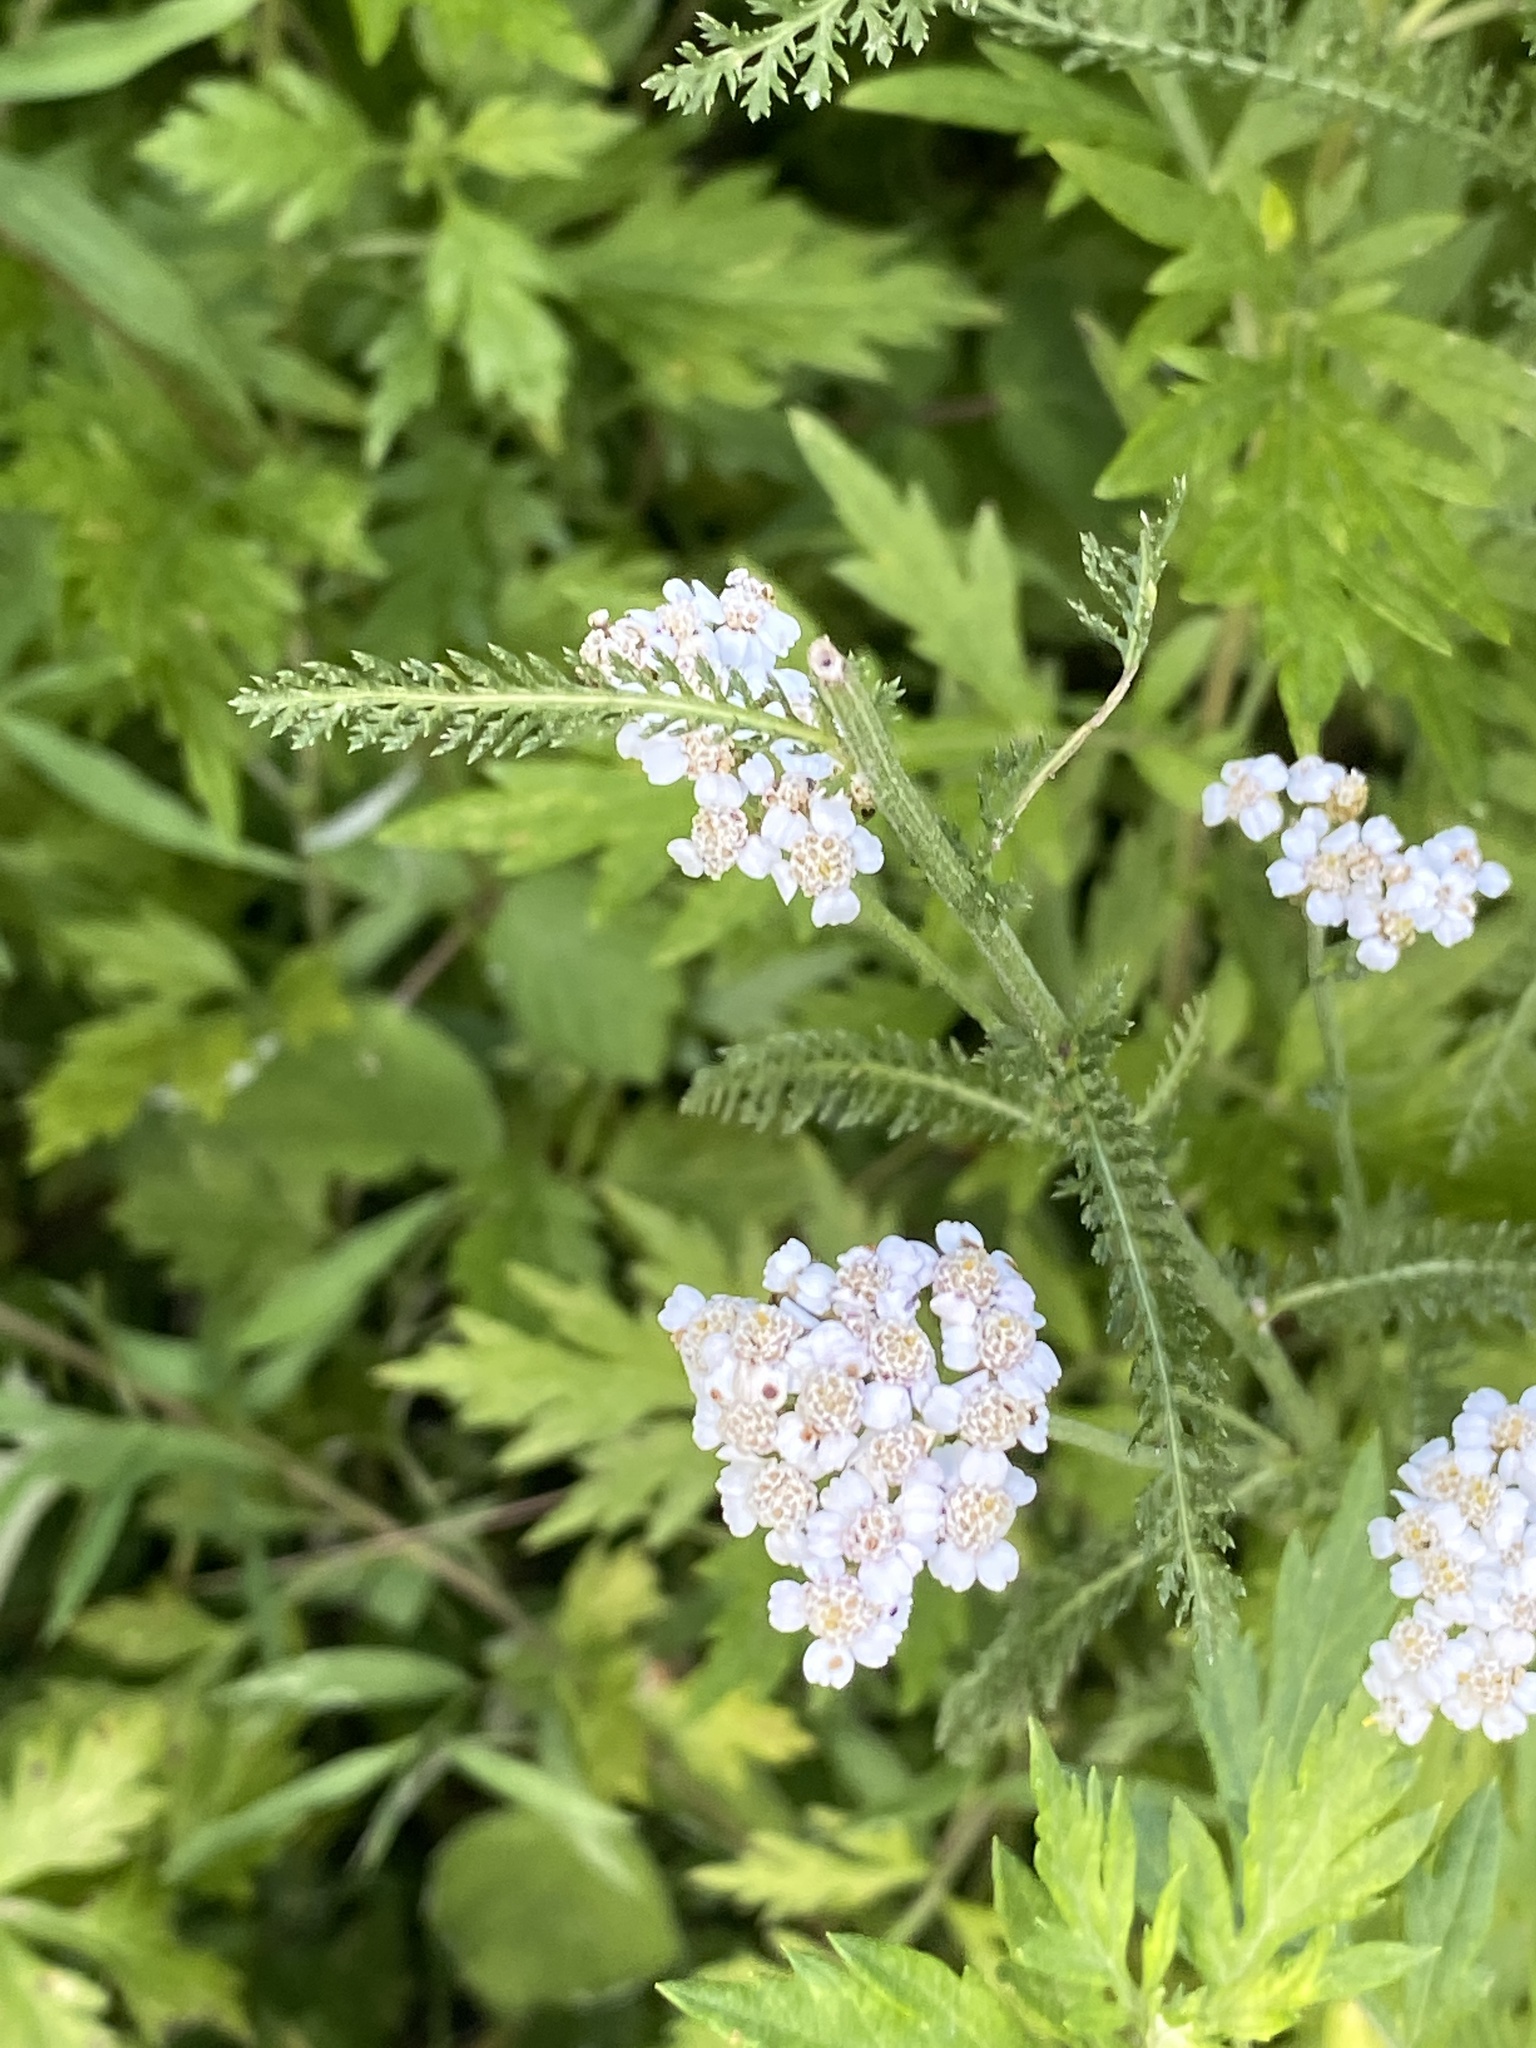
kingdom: Plantae
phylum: Tracheophyta
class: Magnoliopsida
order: Asterales
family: Asteraceae
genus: Achillea
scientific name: Achillea millefolium
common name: Yarrow
